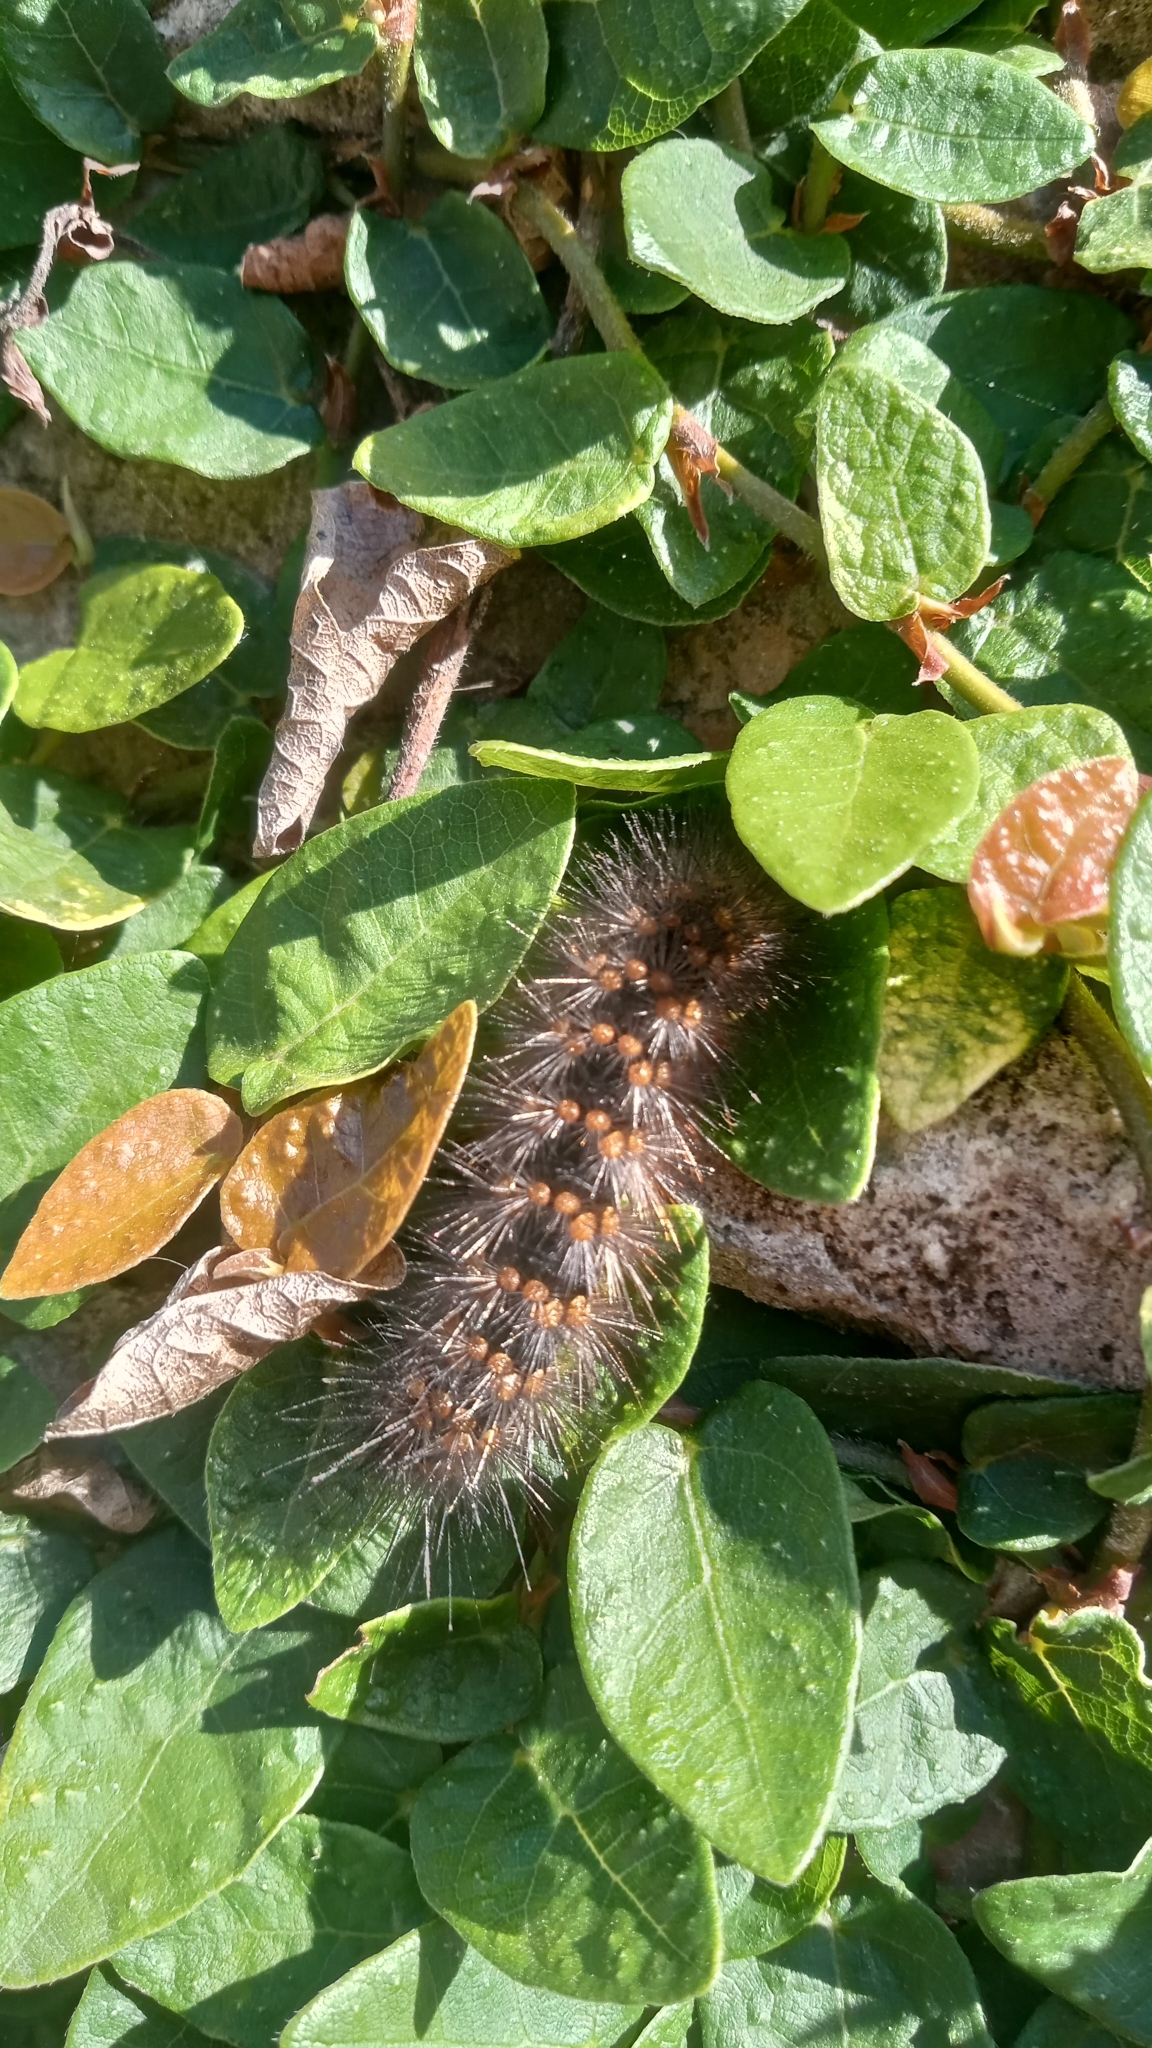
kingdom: Animalia
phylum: Arthropoda
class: Insecta
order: Lepidoptera
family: Erebidae
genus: Hypercompe
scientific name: Hypercompe indecisa
